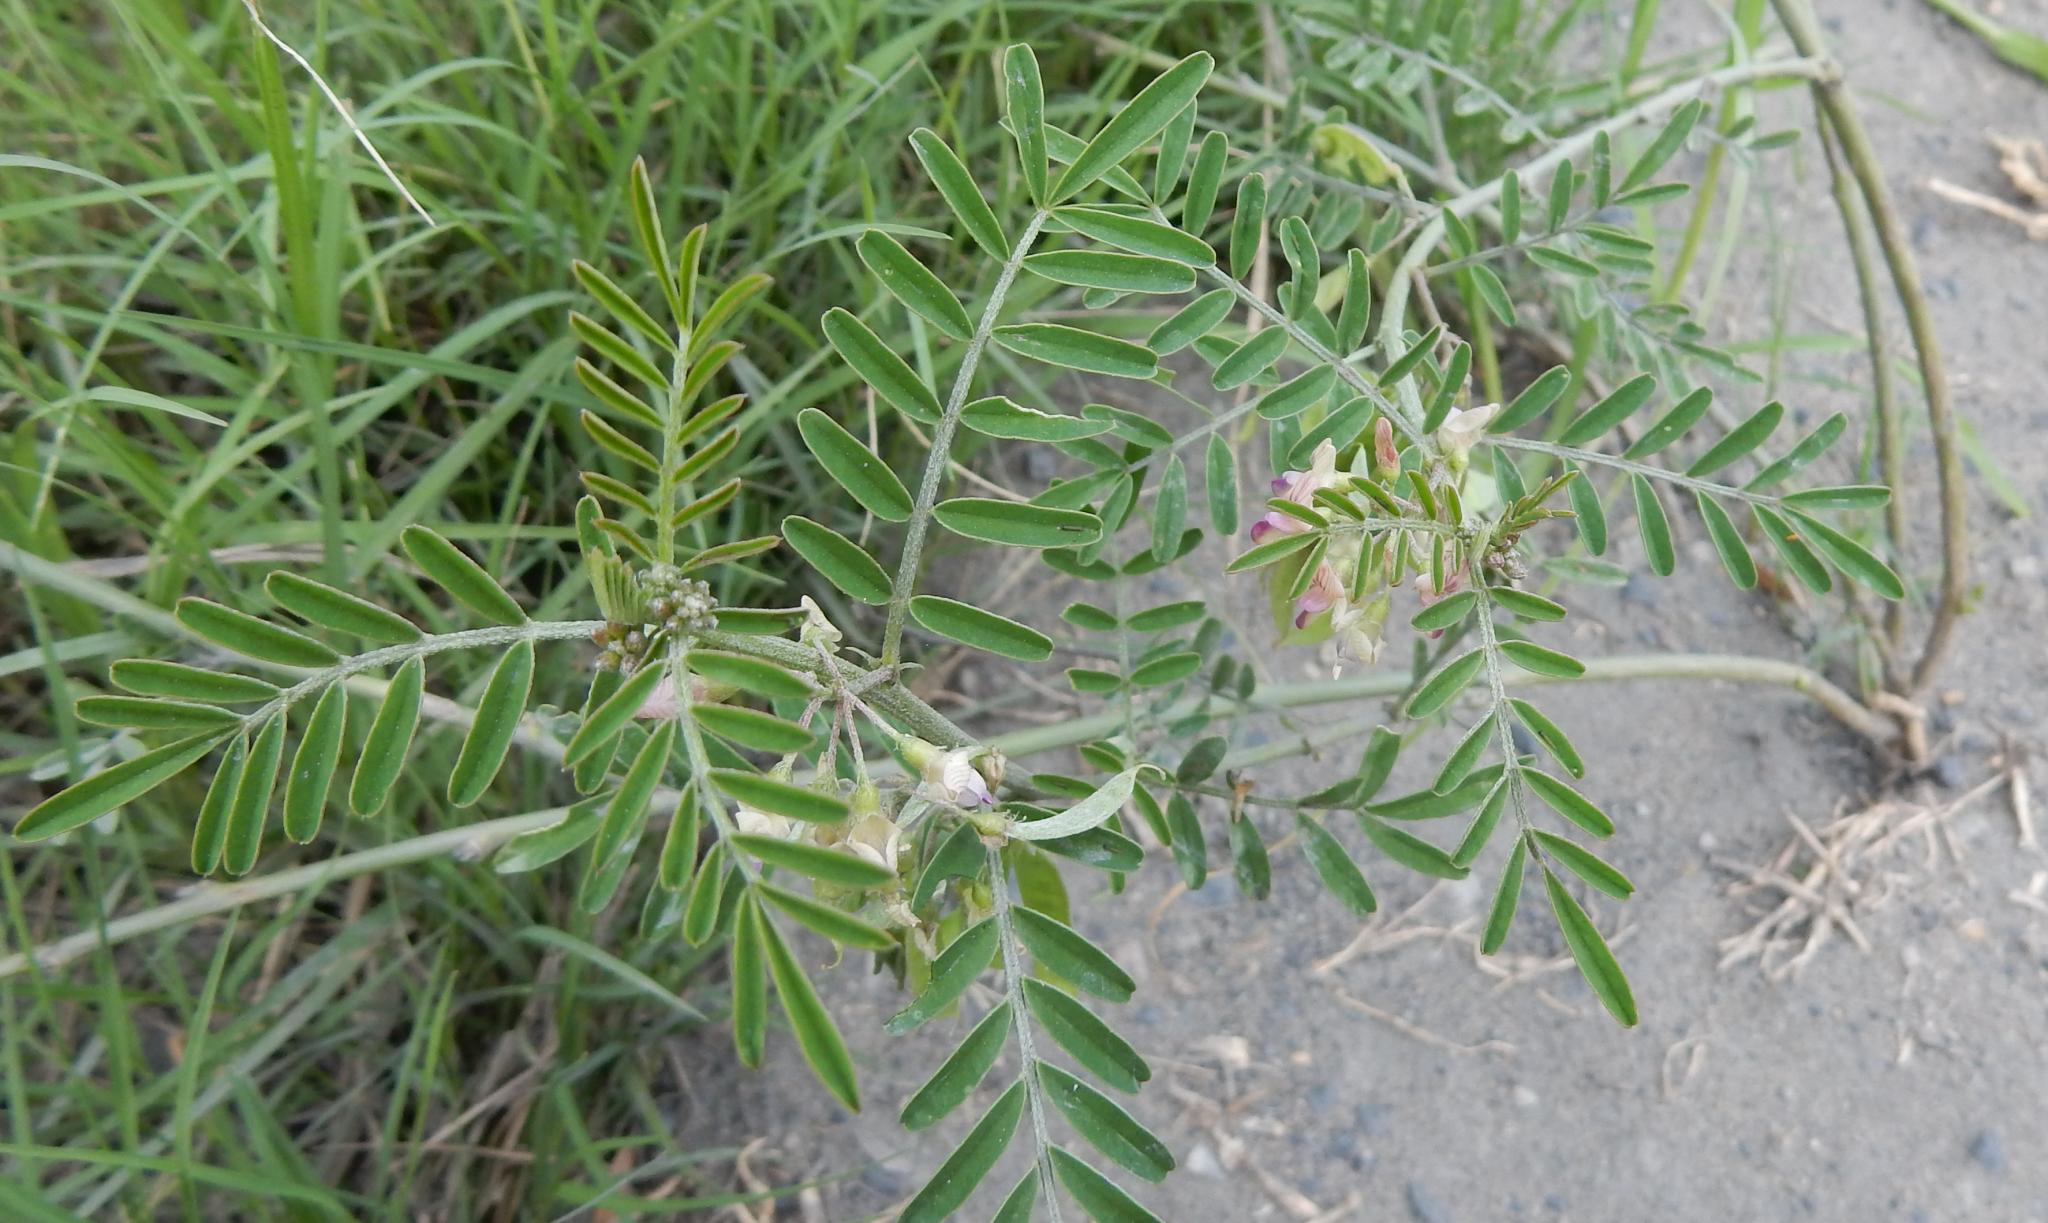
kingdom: Plantae
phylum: Tracheophyta
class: Magnoliopsida
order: Fabales
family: Fabaceae
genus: Lessertia
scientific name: Lessertia brachystachya
